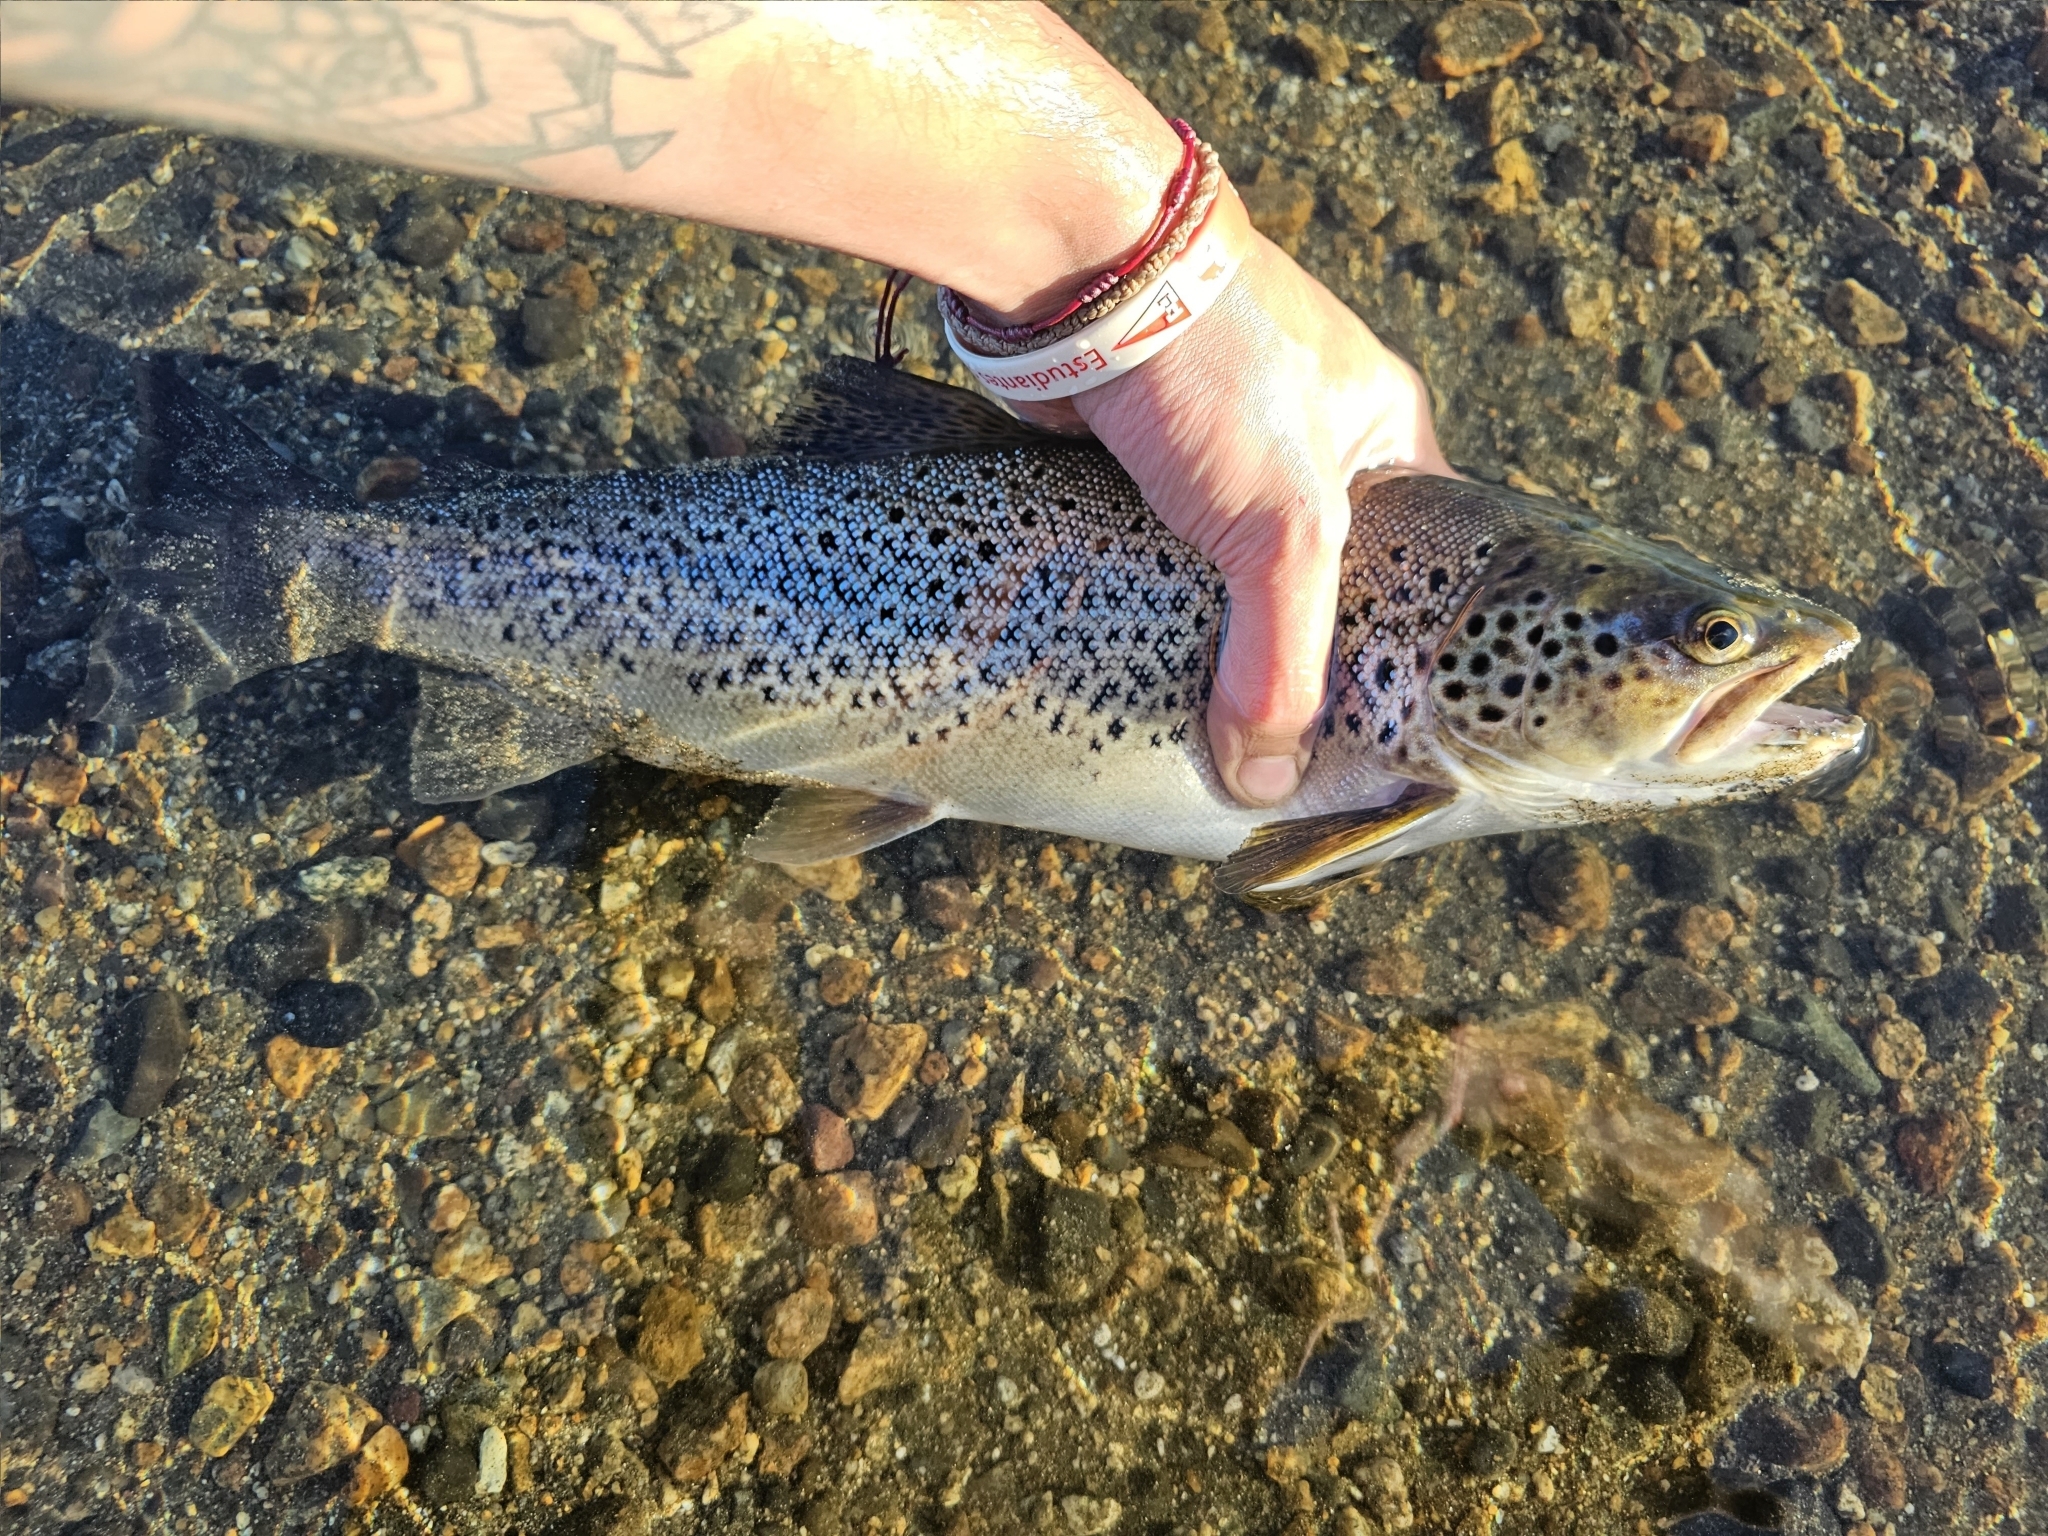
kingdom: Animalia
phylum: Chordata
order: Salmoniformes
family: Salmonidae
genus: Salmo
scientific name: Salmo trutta
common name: Brown trout
